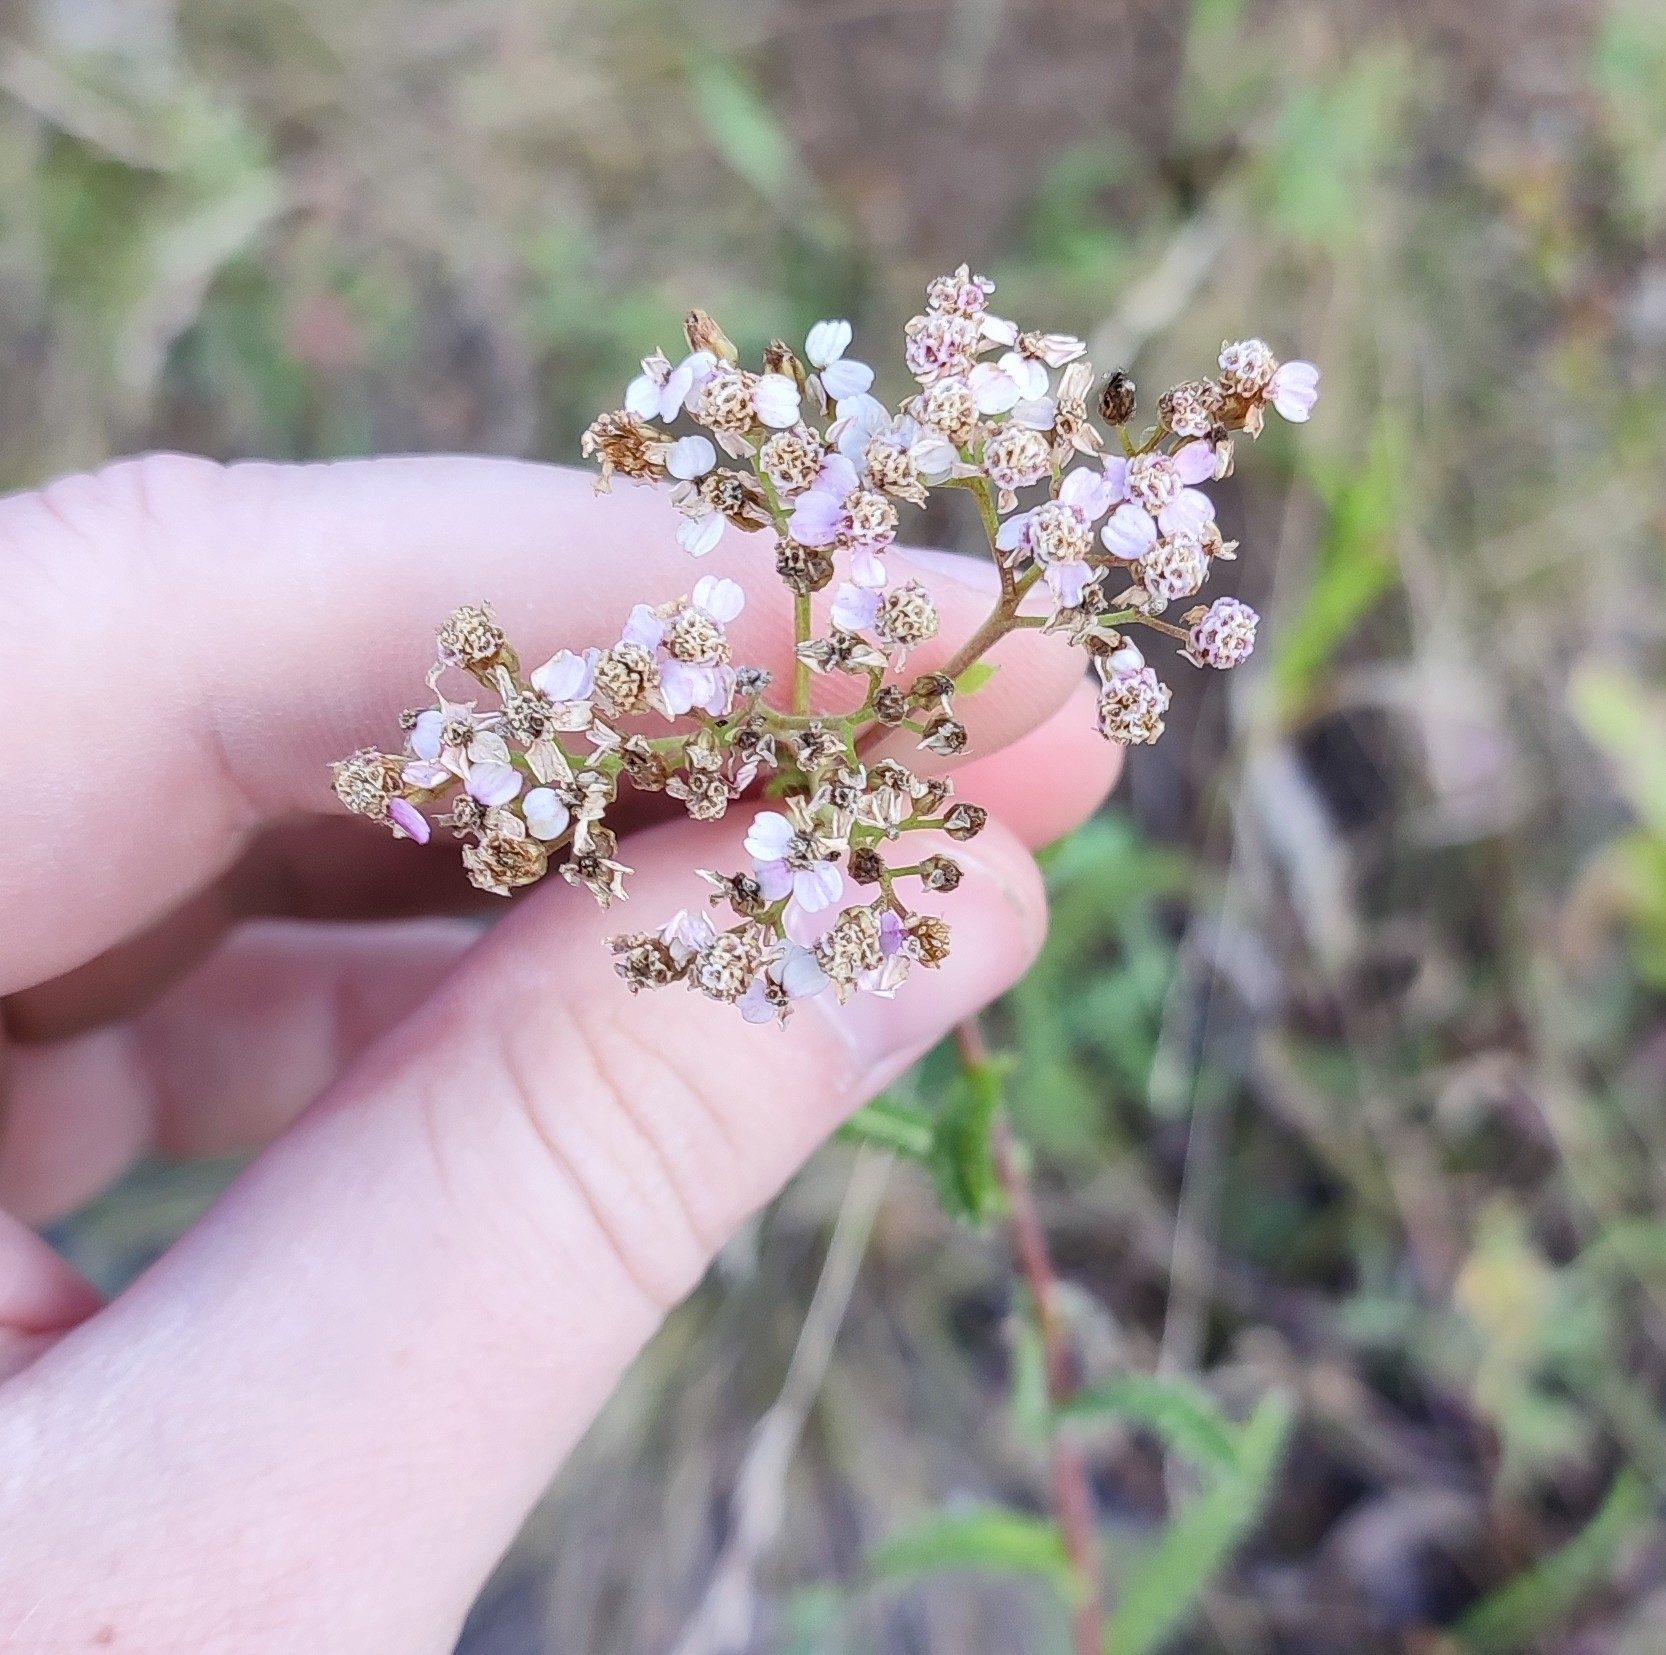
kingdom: Plantae
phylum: Tracheophyta
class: Magnoliopsida
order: Asterales
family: Asteraceae
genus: Achillea
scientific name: Achillea millefolium
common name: Yarrow
